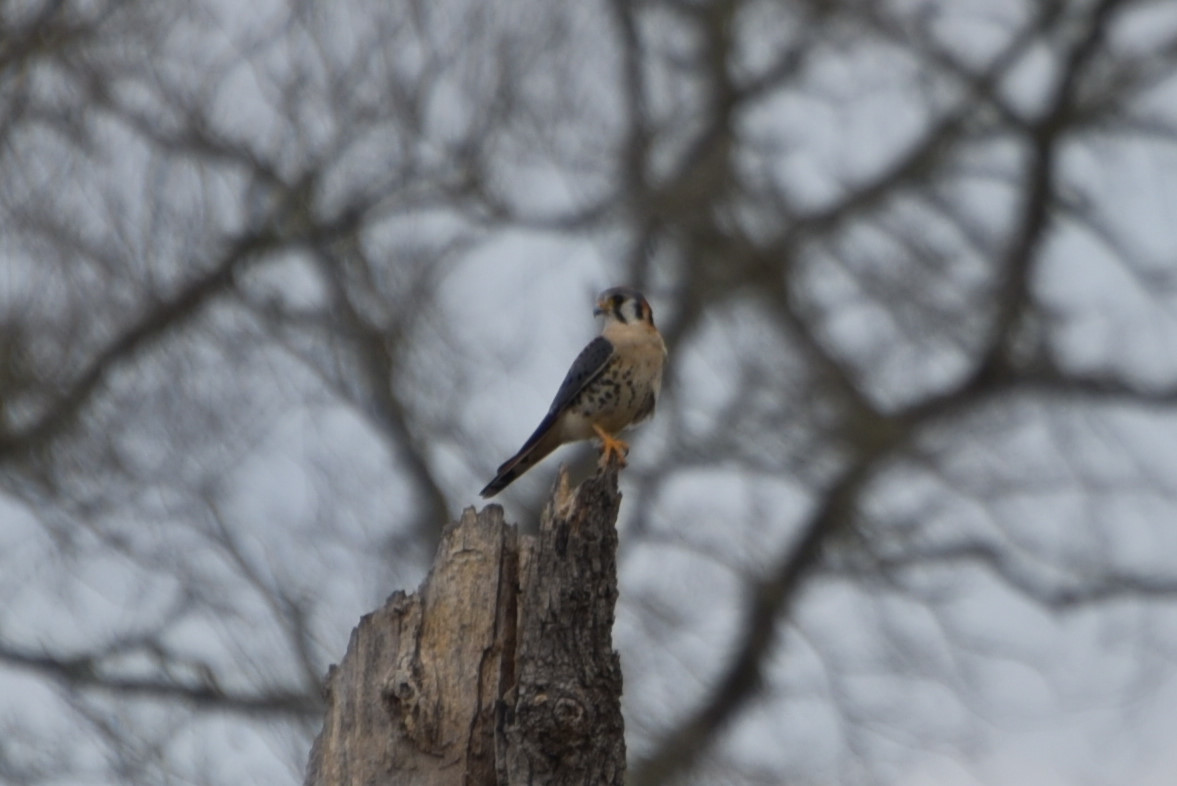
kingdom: Animalia
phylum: Chordata
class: Aves
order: Falconiformes
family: Falconidae
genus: Falco
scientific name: Falco sparverius
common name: American kestrel
